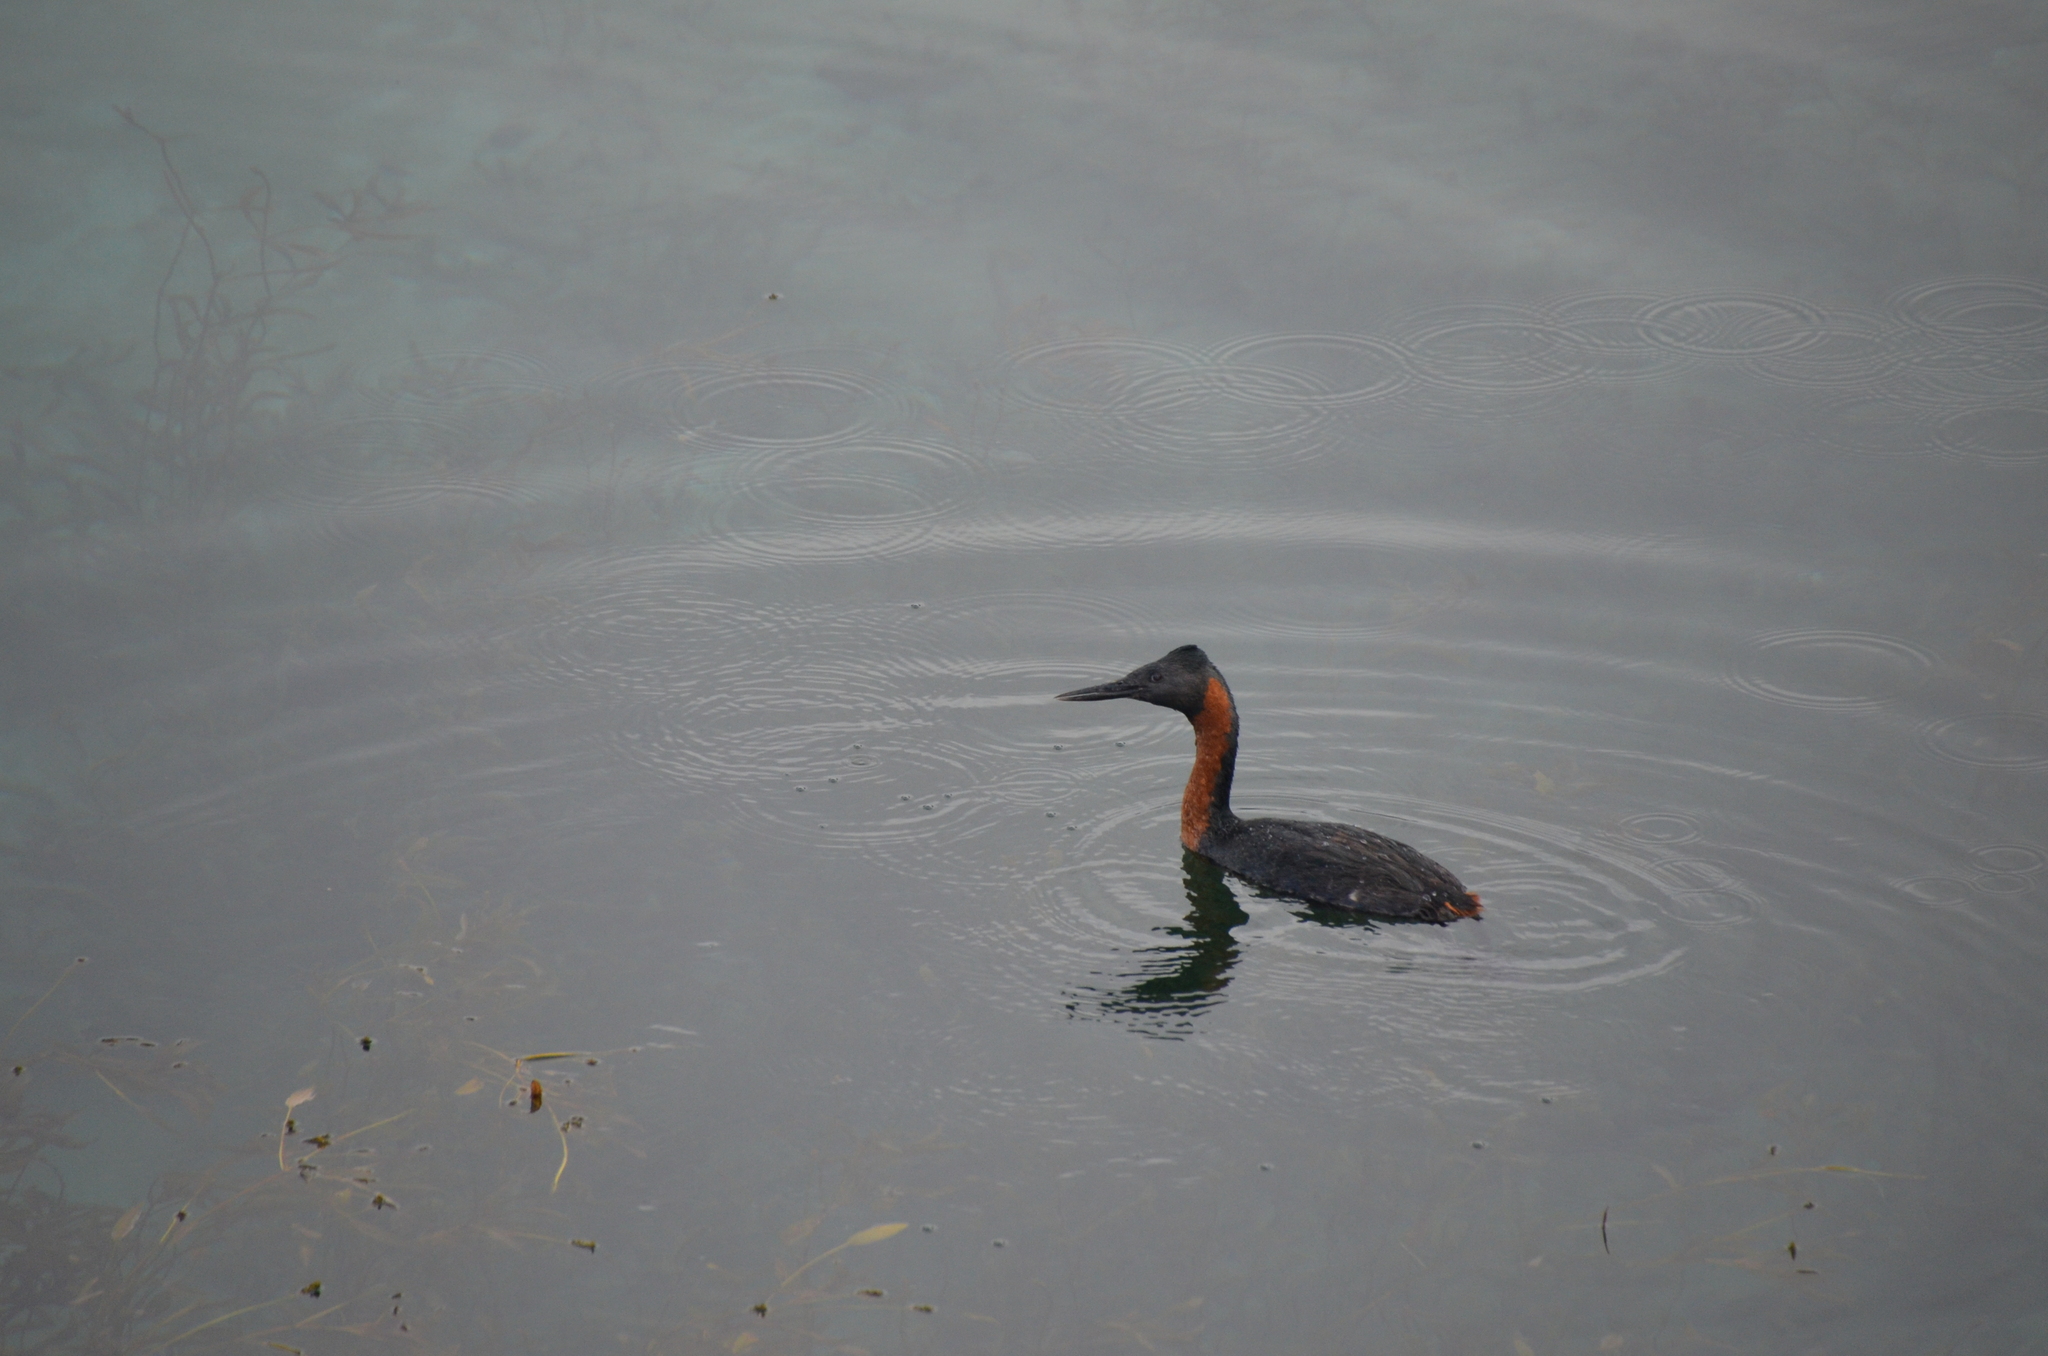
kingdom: Animalia
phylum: Chordata
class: Aves
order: Podicipediformes
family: Podicipedidae
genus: Podiceps
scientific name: Podiceps major
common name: Great grebe
